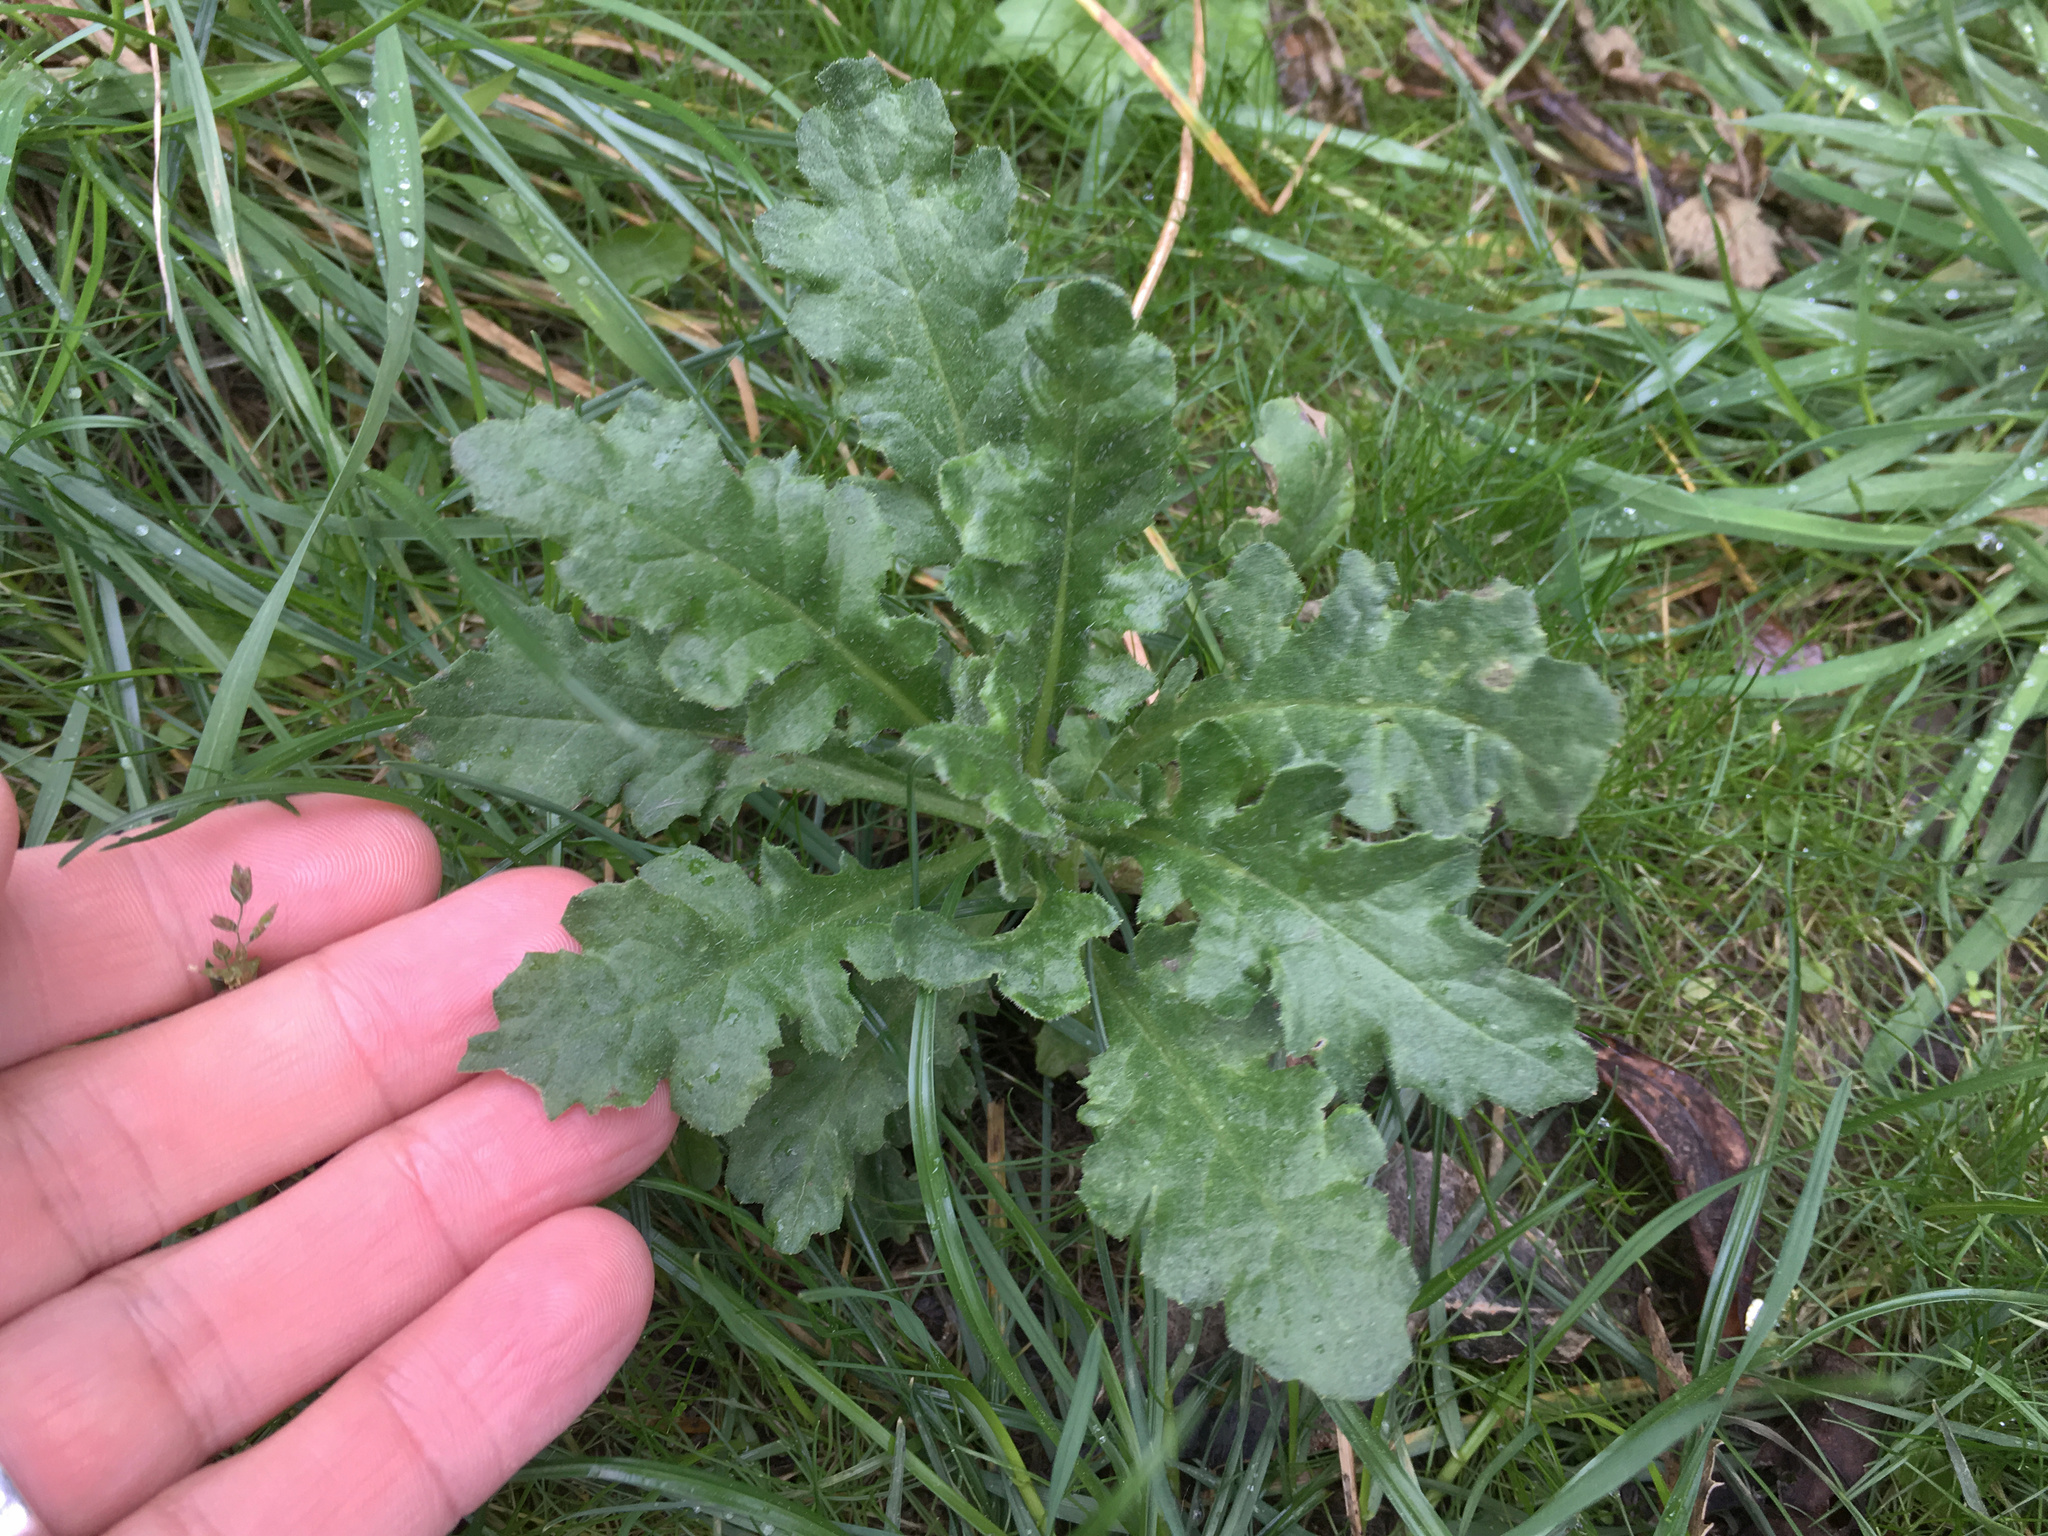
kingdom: Plantae
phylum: Tracheophyta
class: Magnoliopsida
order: Asterales
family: Asteraceae
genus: Senecio
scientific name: Senecio glomeratus
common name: Cutleaf burnweed
